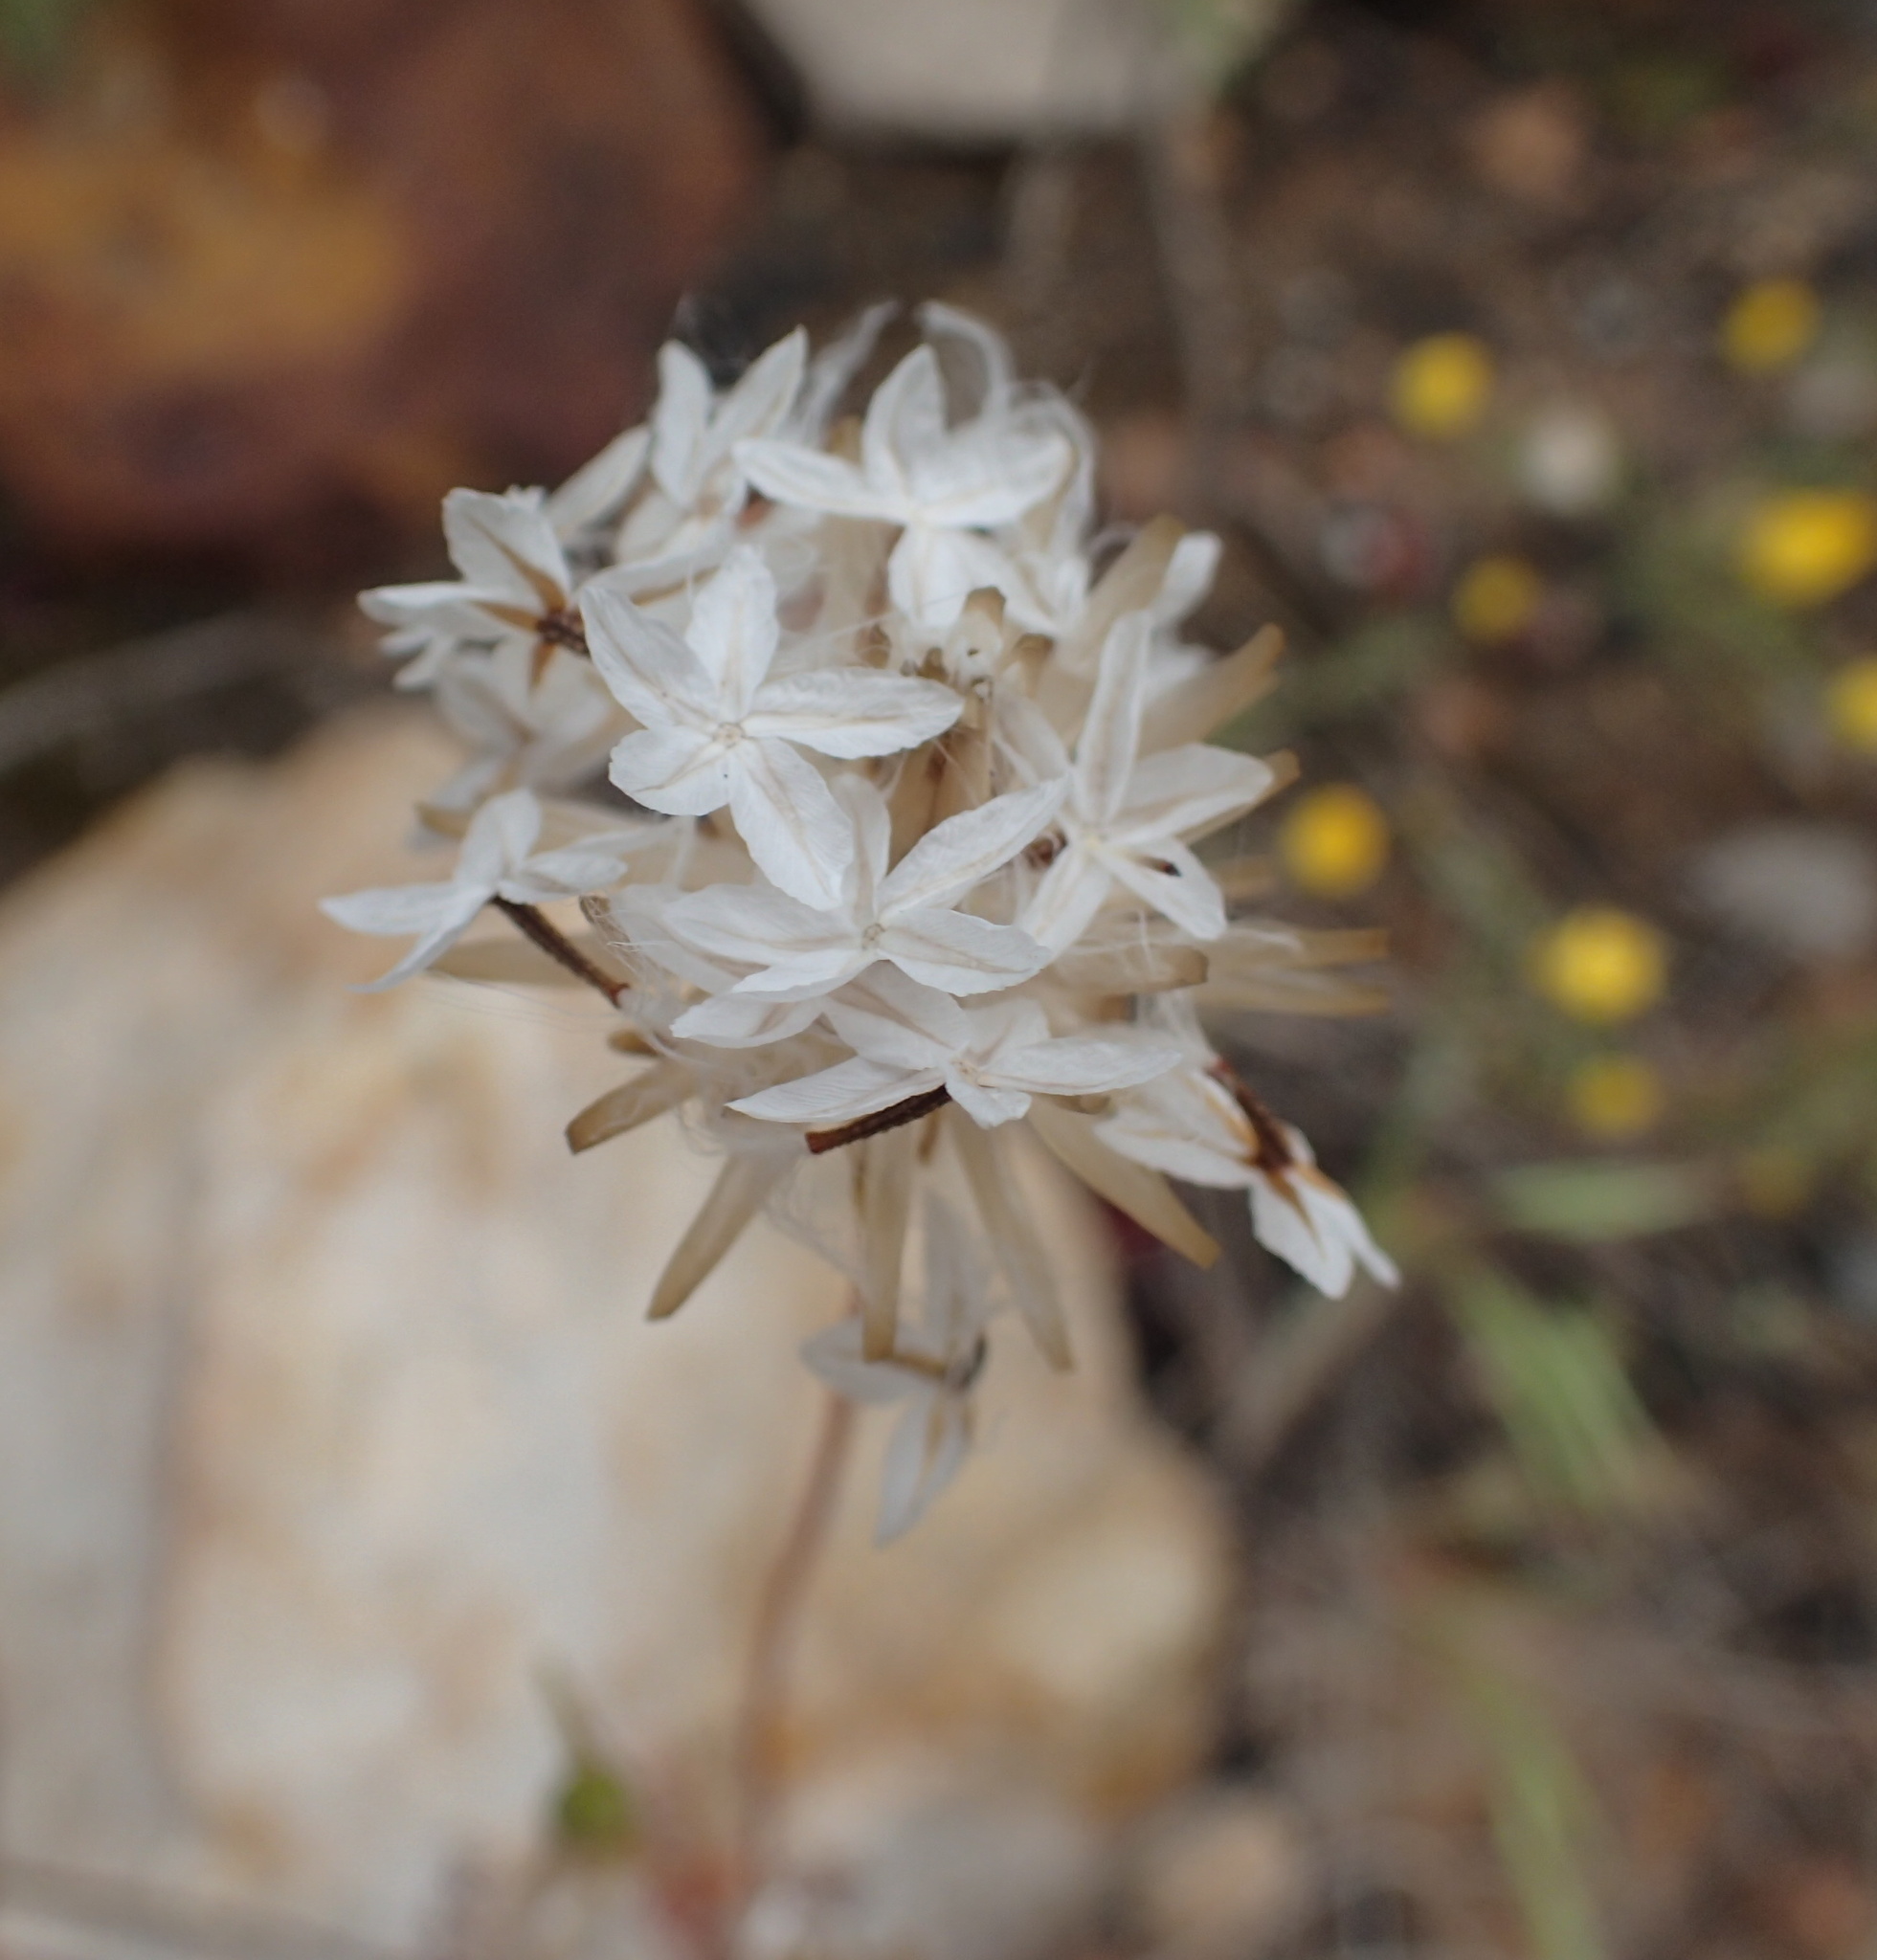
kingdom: Plantae
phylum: Tracheophyta
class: Magnoliopsida
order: Asterales
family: Asteraceae
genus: Ursinia
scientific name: Ursinia anthemoides
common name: Ursinia
